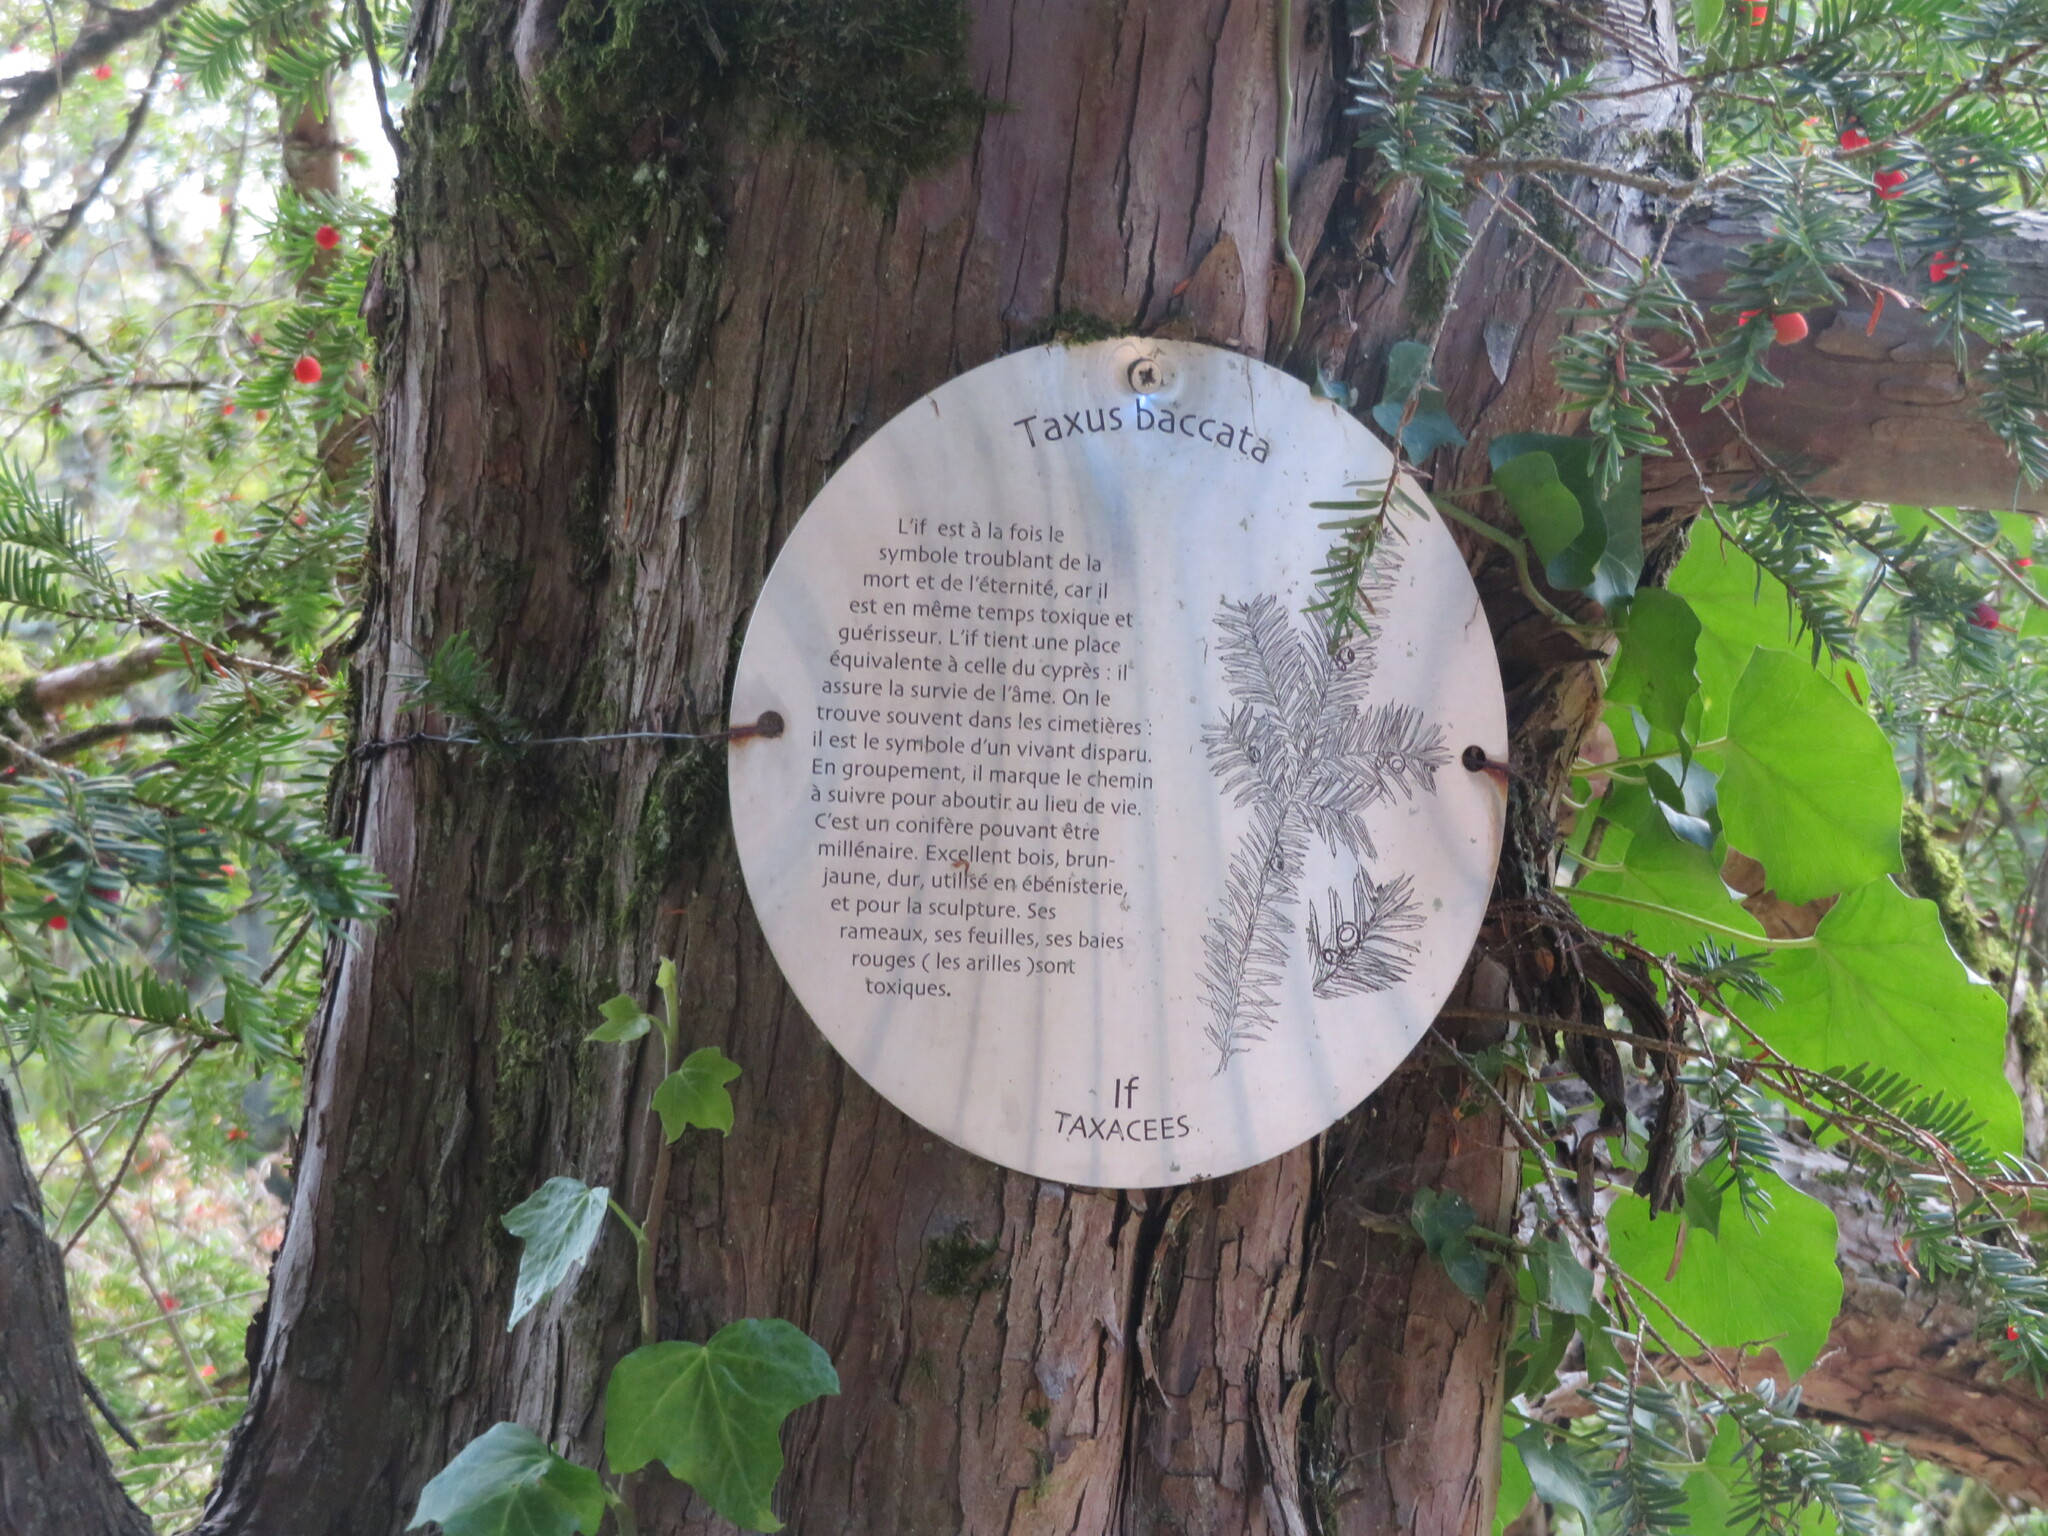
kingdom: Plantae
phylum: Tracheophyta
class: Pinopsida
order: Pinales
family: Taxaceae
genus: Taxus
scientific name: Taxus baccata
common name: Yew
